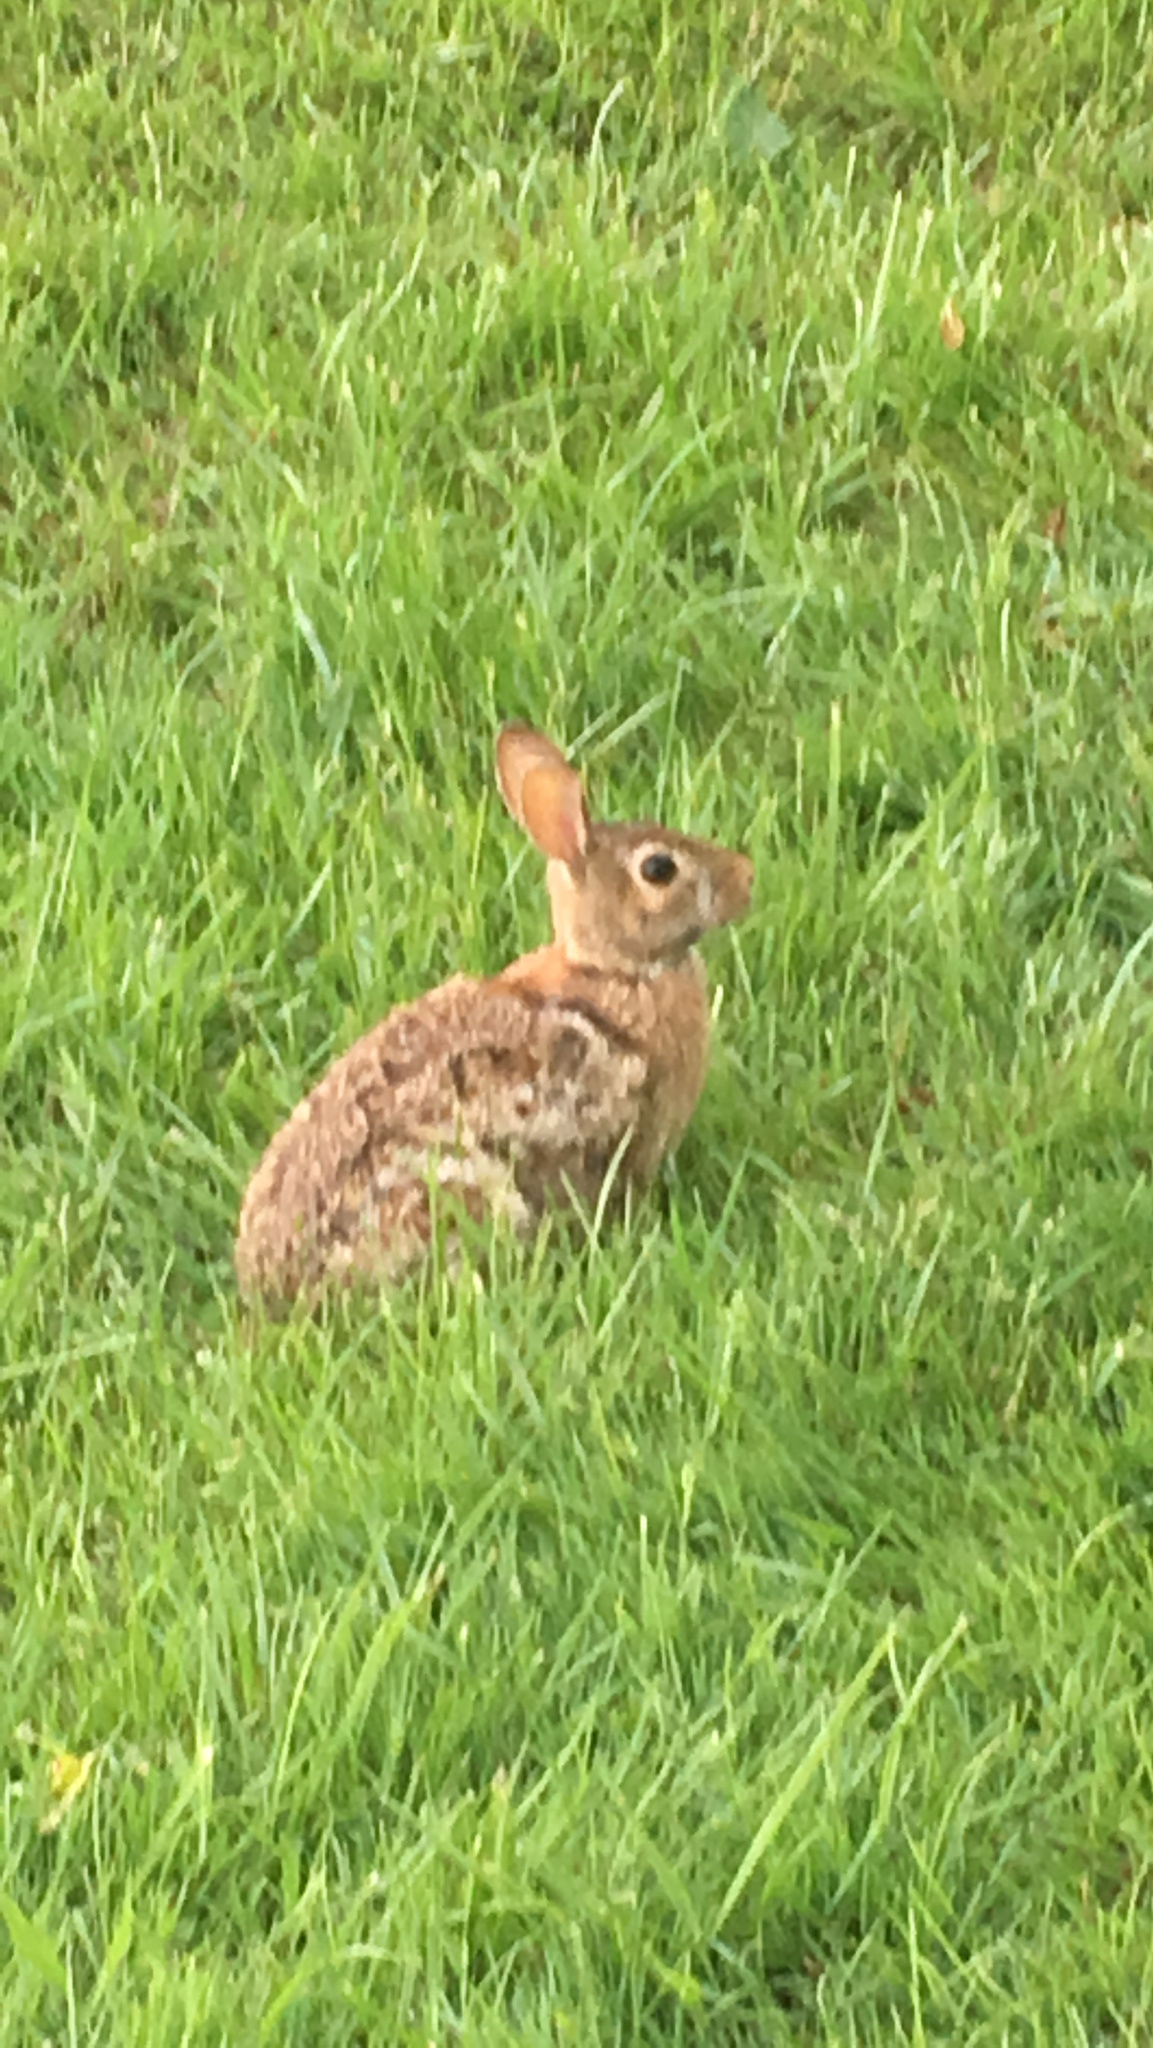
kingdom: Animalia
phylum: Chordata
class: Mammalia
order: Lagomorpha
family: Leporidae
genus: Sylvilagus
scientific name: Sylvilagus floridanus
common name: Eastern cottontail
